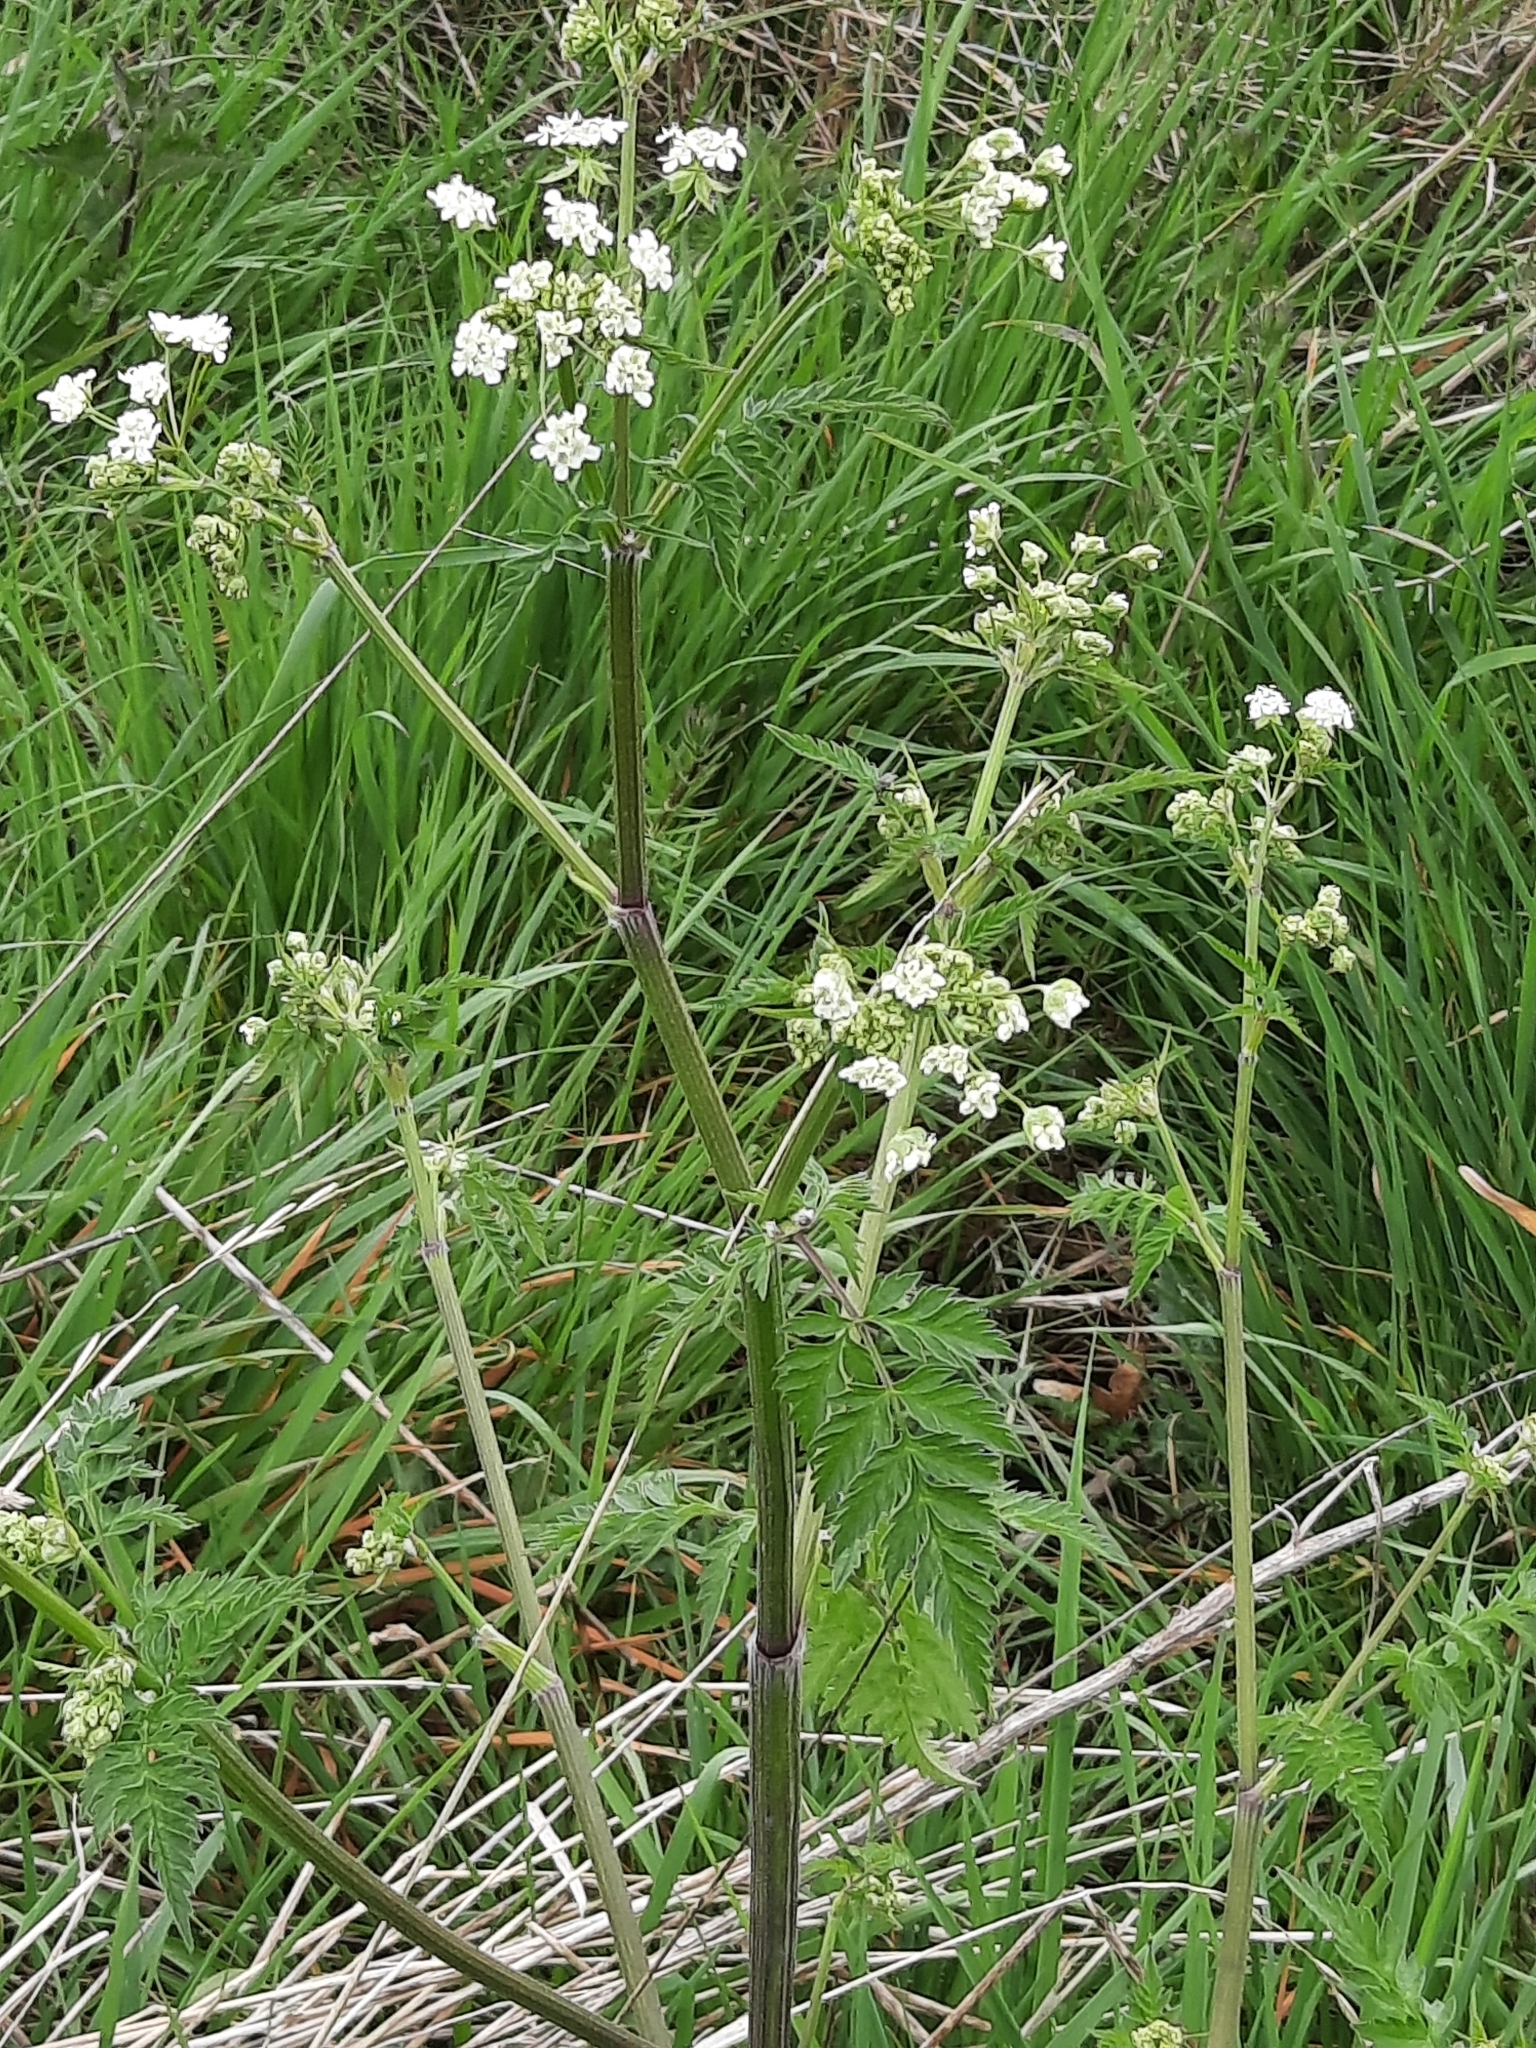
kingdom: Plantae
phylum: Tracheophyta
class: Magnoliopsida
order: Apiales
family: Apiaceae
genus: Anthriscus
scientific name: Anthriscus sylvestris
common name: Cow parsley
